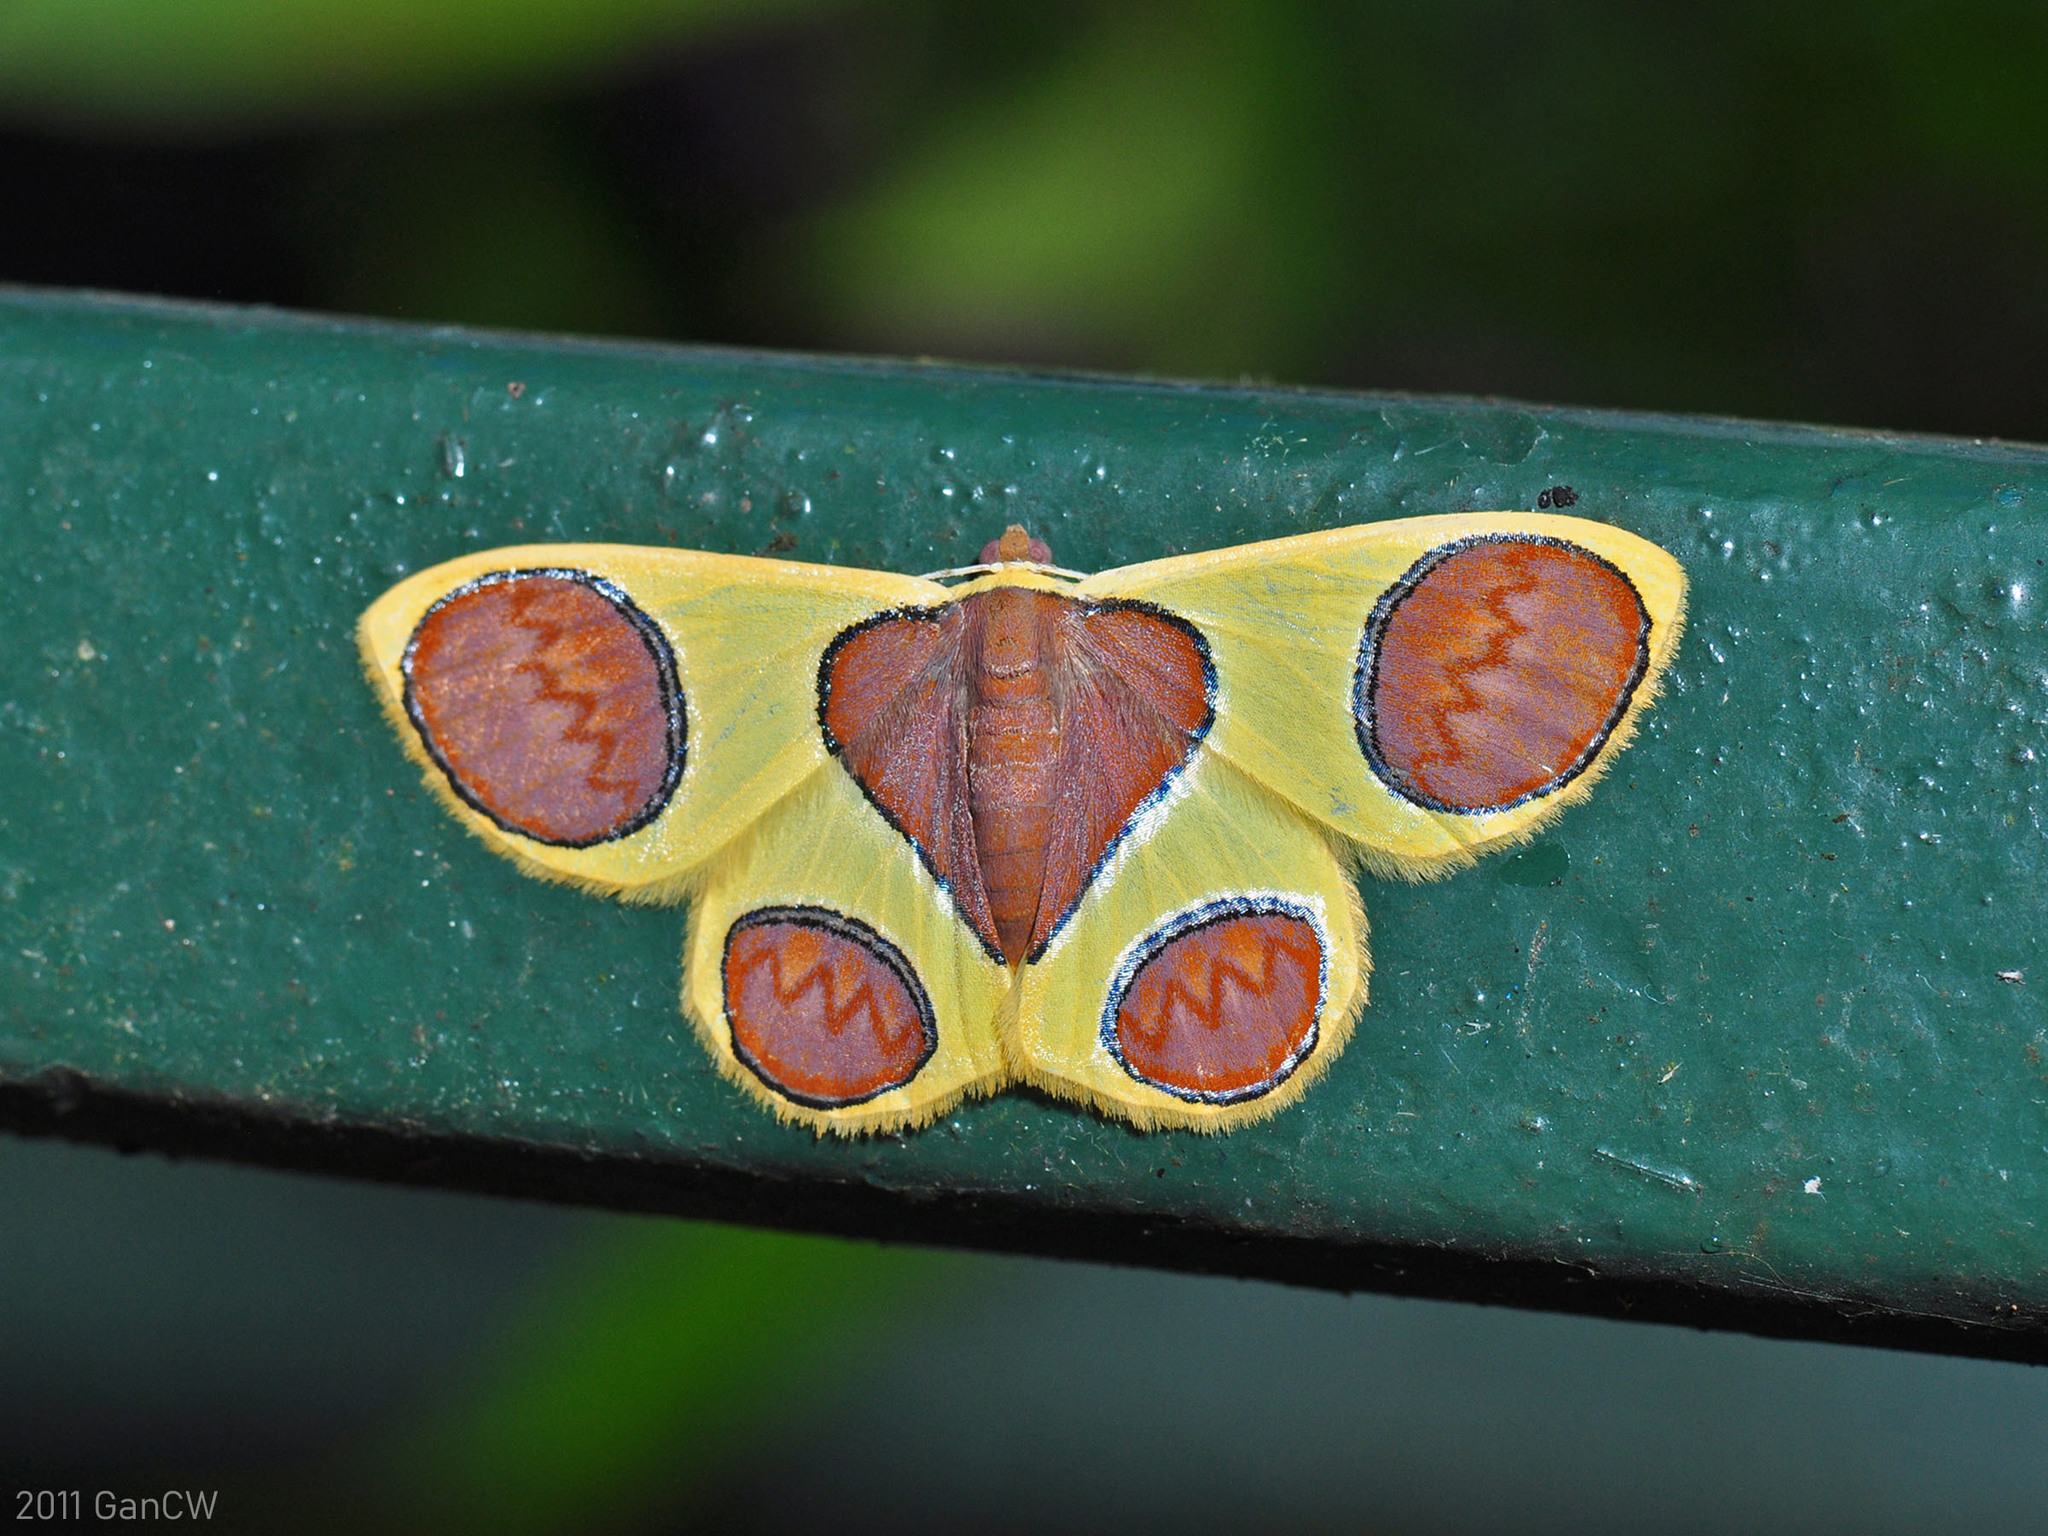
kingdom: Animalia
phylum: Arthropoda
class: Insecta
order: Lepidoptera
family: Geometridae
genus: Plutodes
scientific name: Plutodes malaysiana
